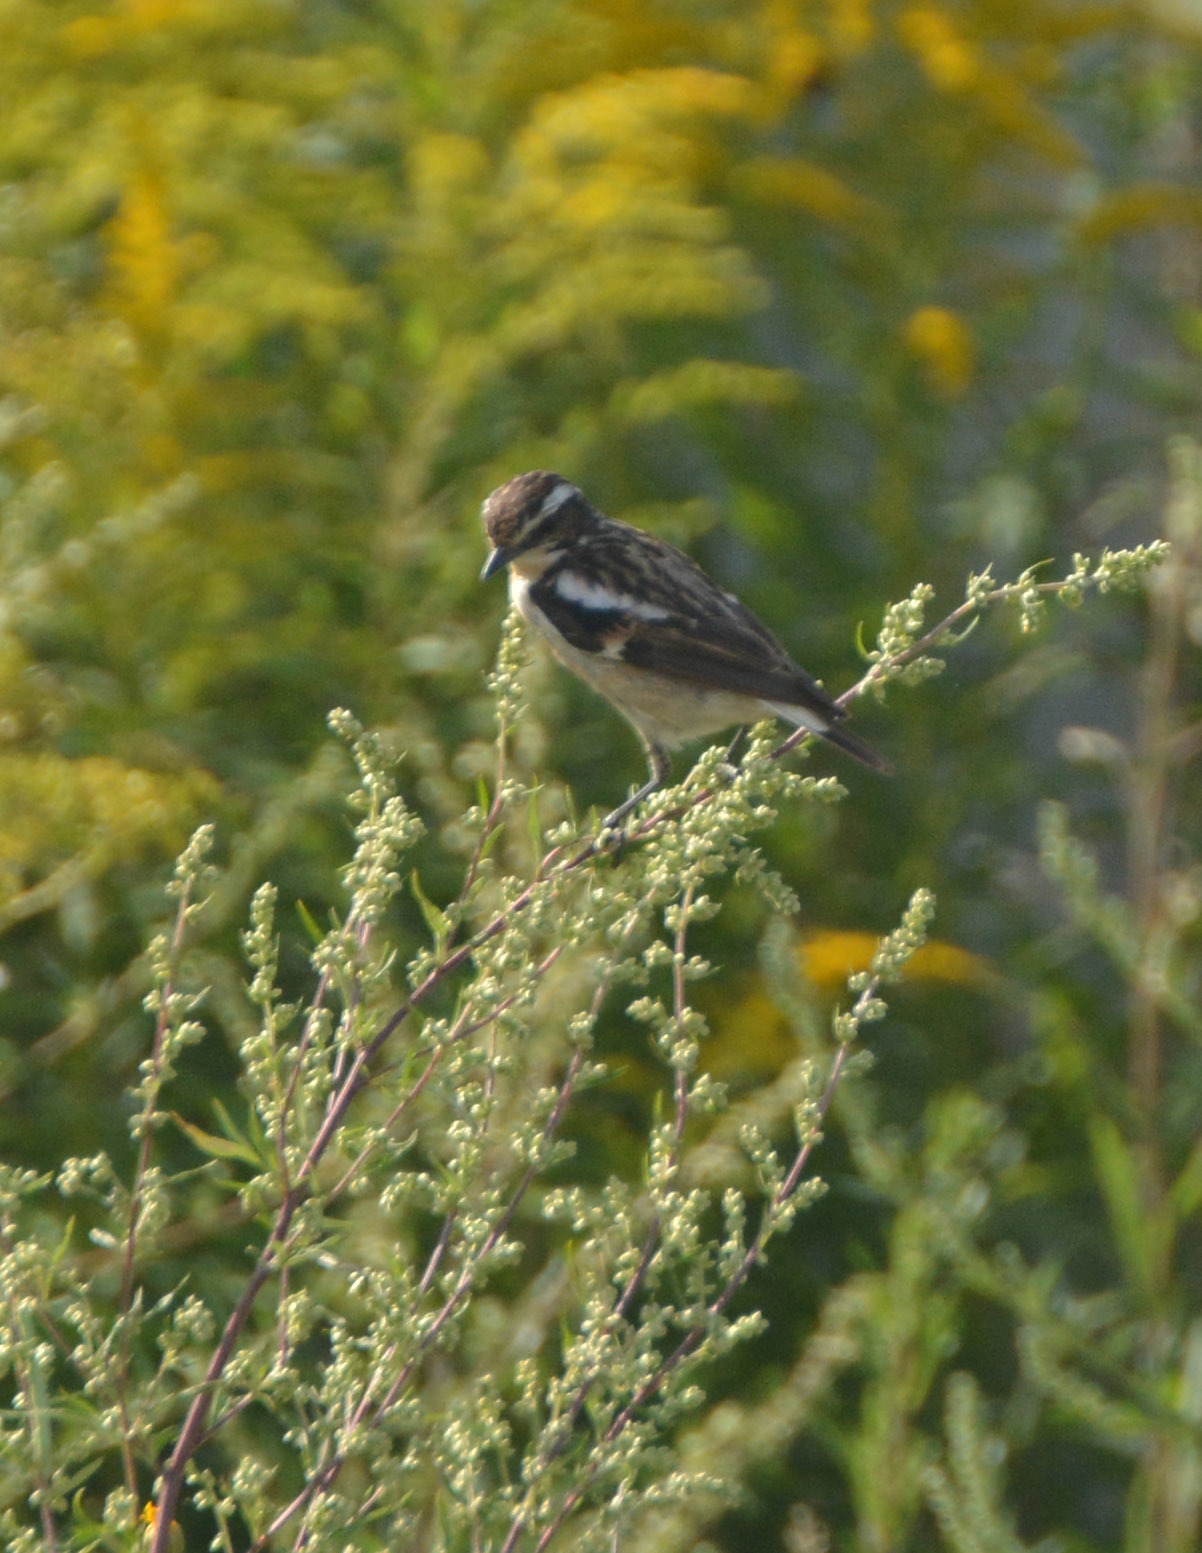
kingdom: Animalia
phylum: Chordata
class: Aves
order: Passeriformes
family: Muscicapidae
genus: Saxicola
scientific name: Saxicola rubetra
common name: Whinchat
